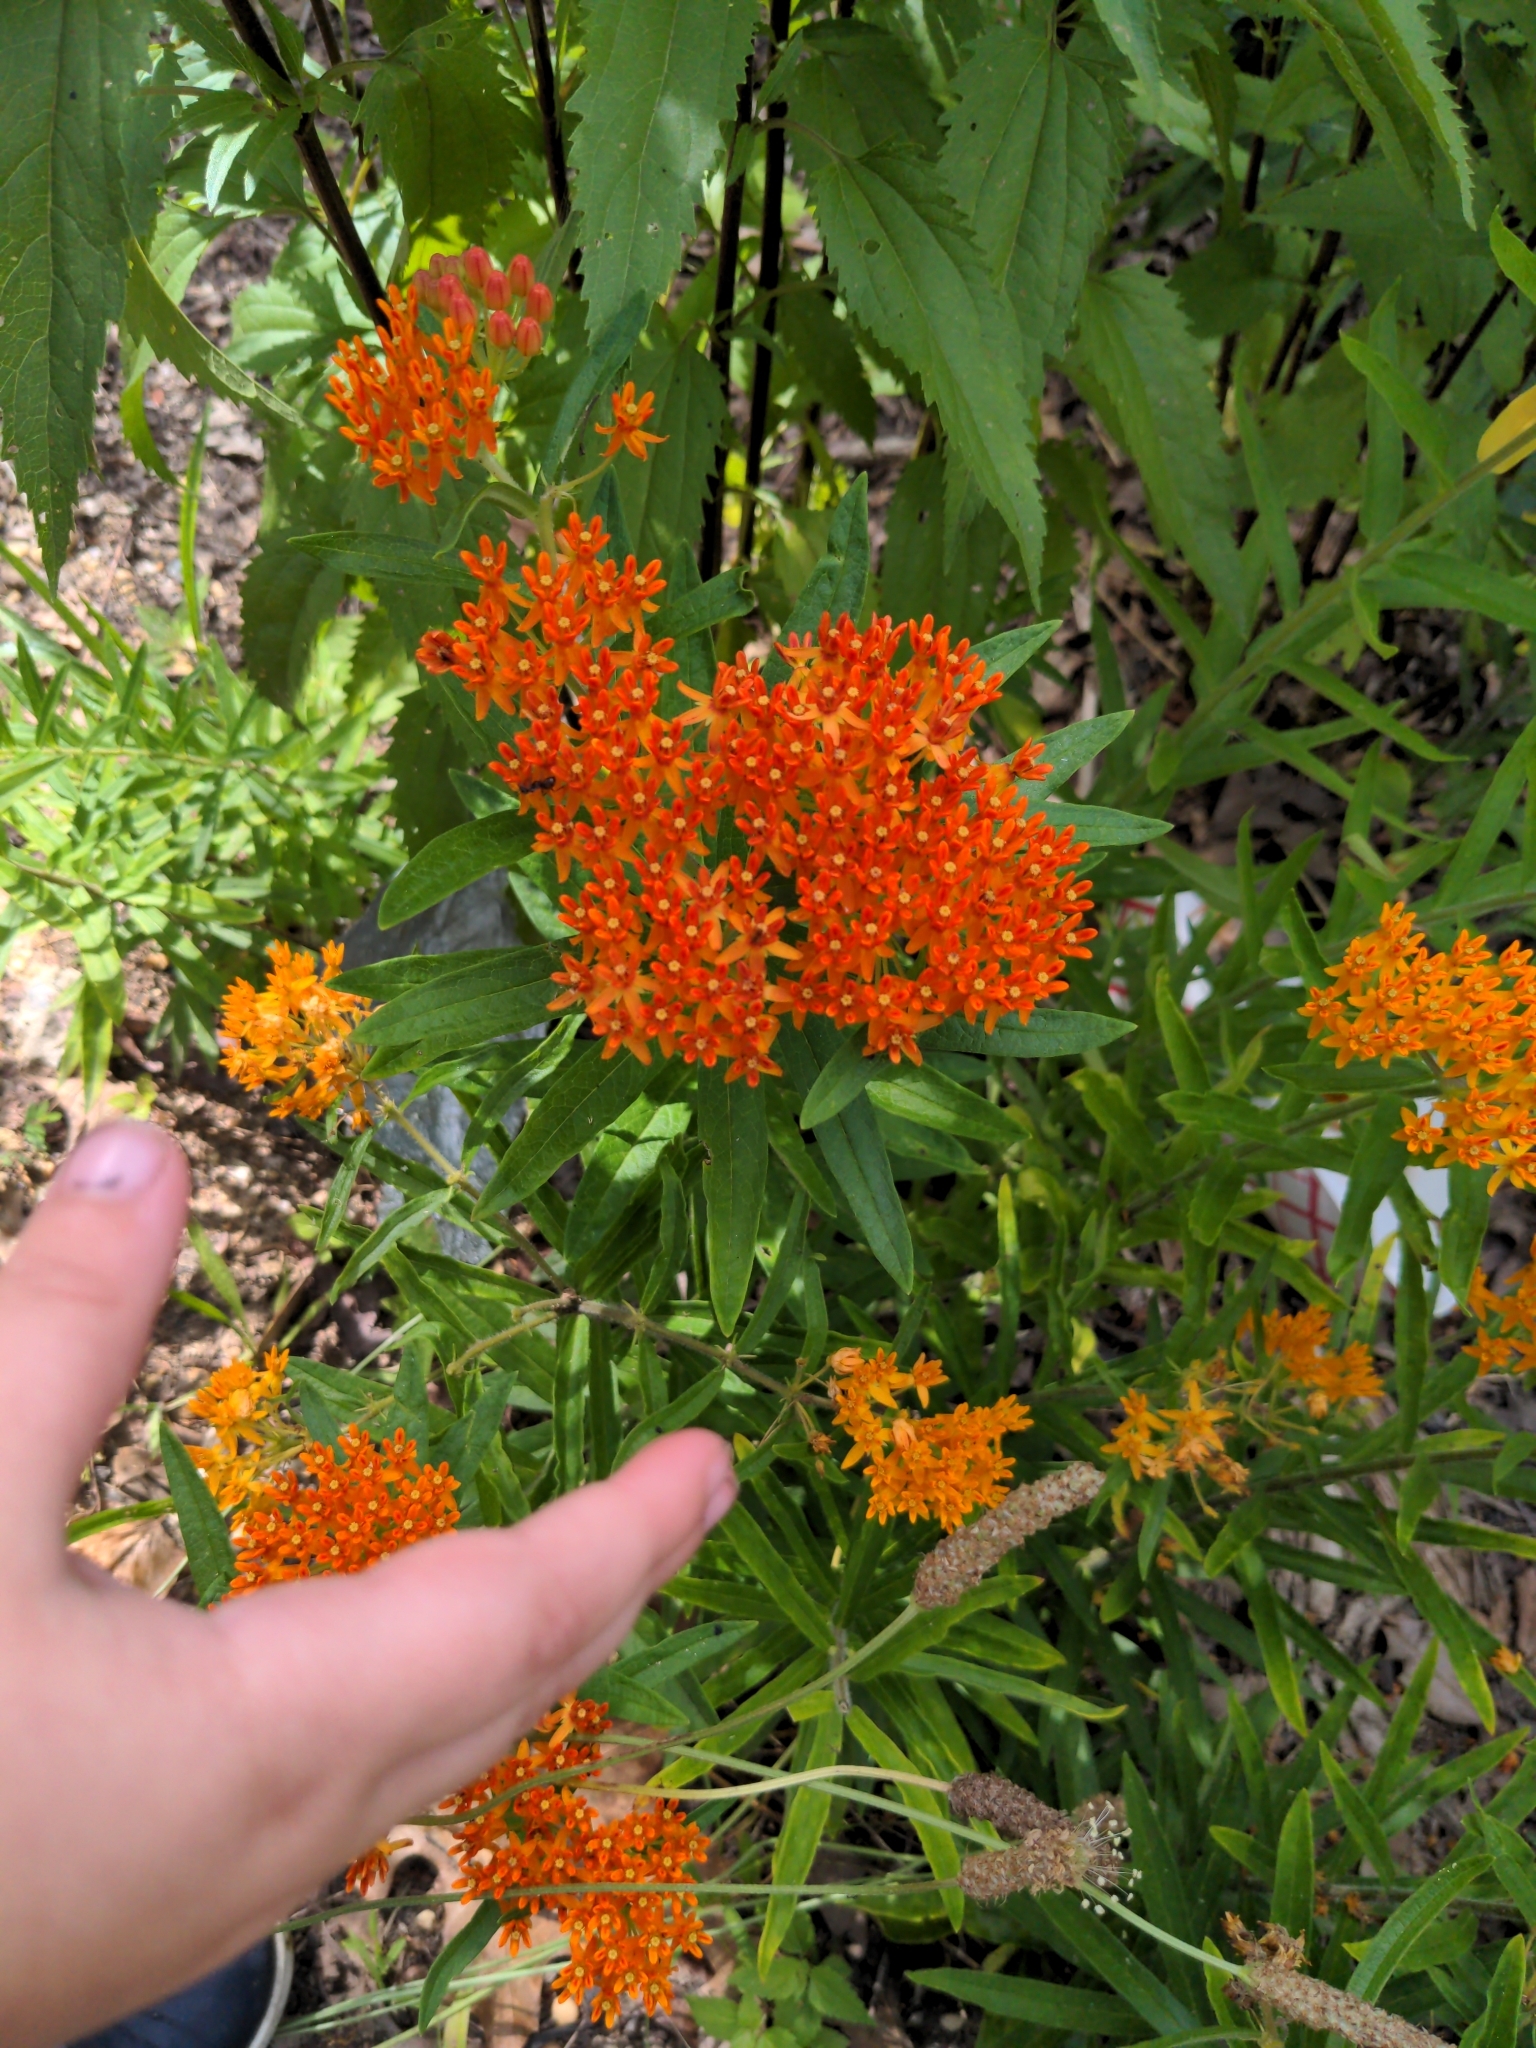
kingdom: Plantae
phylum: Tracheophyta
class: Magnoliopsida
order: Gentianales
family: Apocynaceae
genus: Asclepias
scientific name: Asclepias tuberosa
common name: Butterfly milkweed
